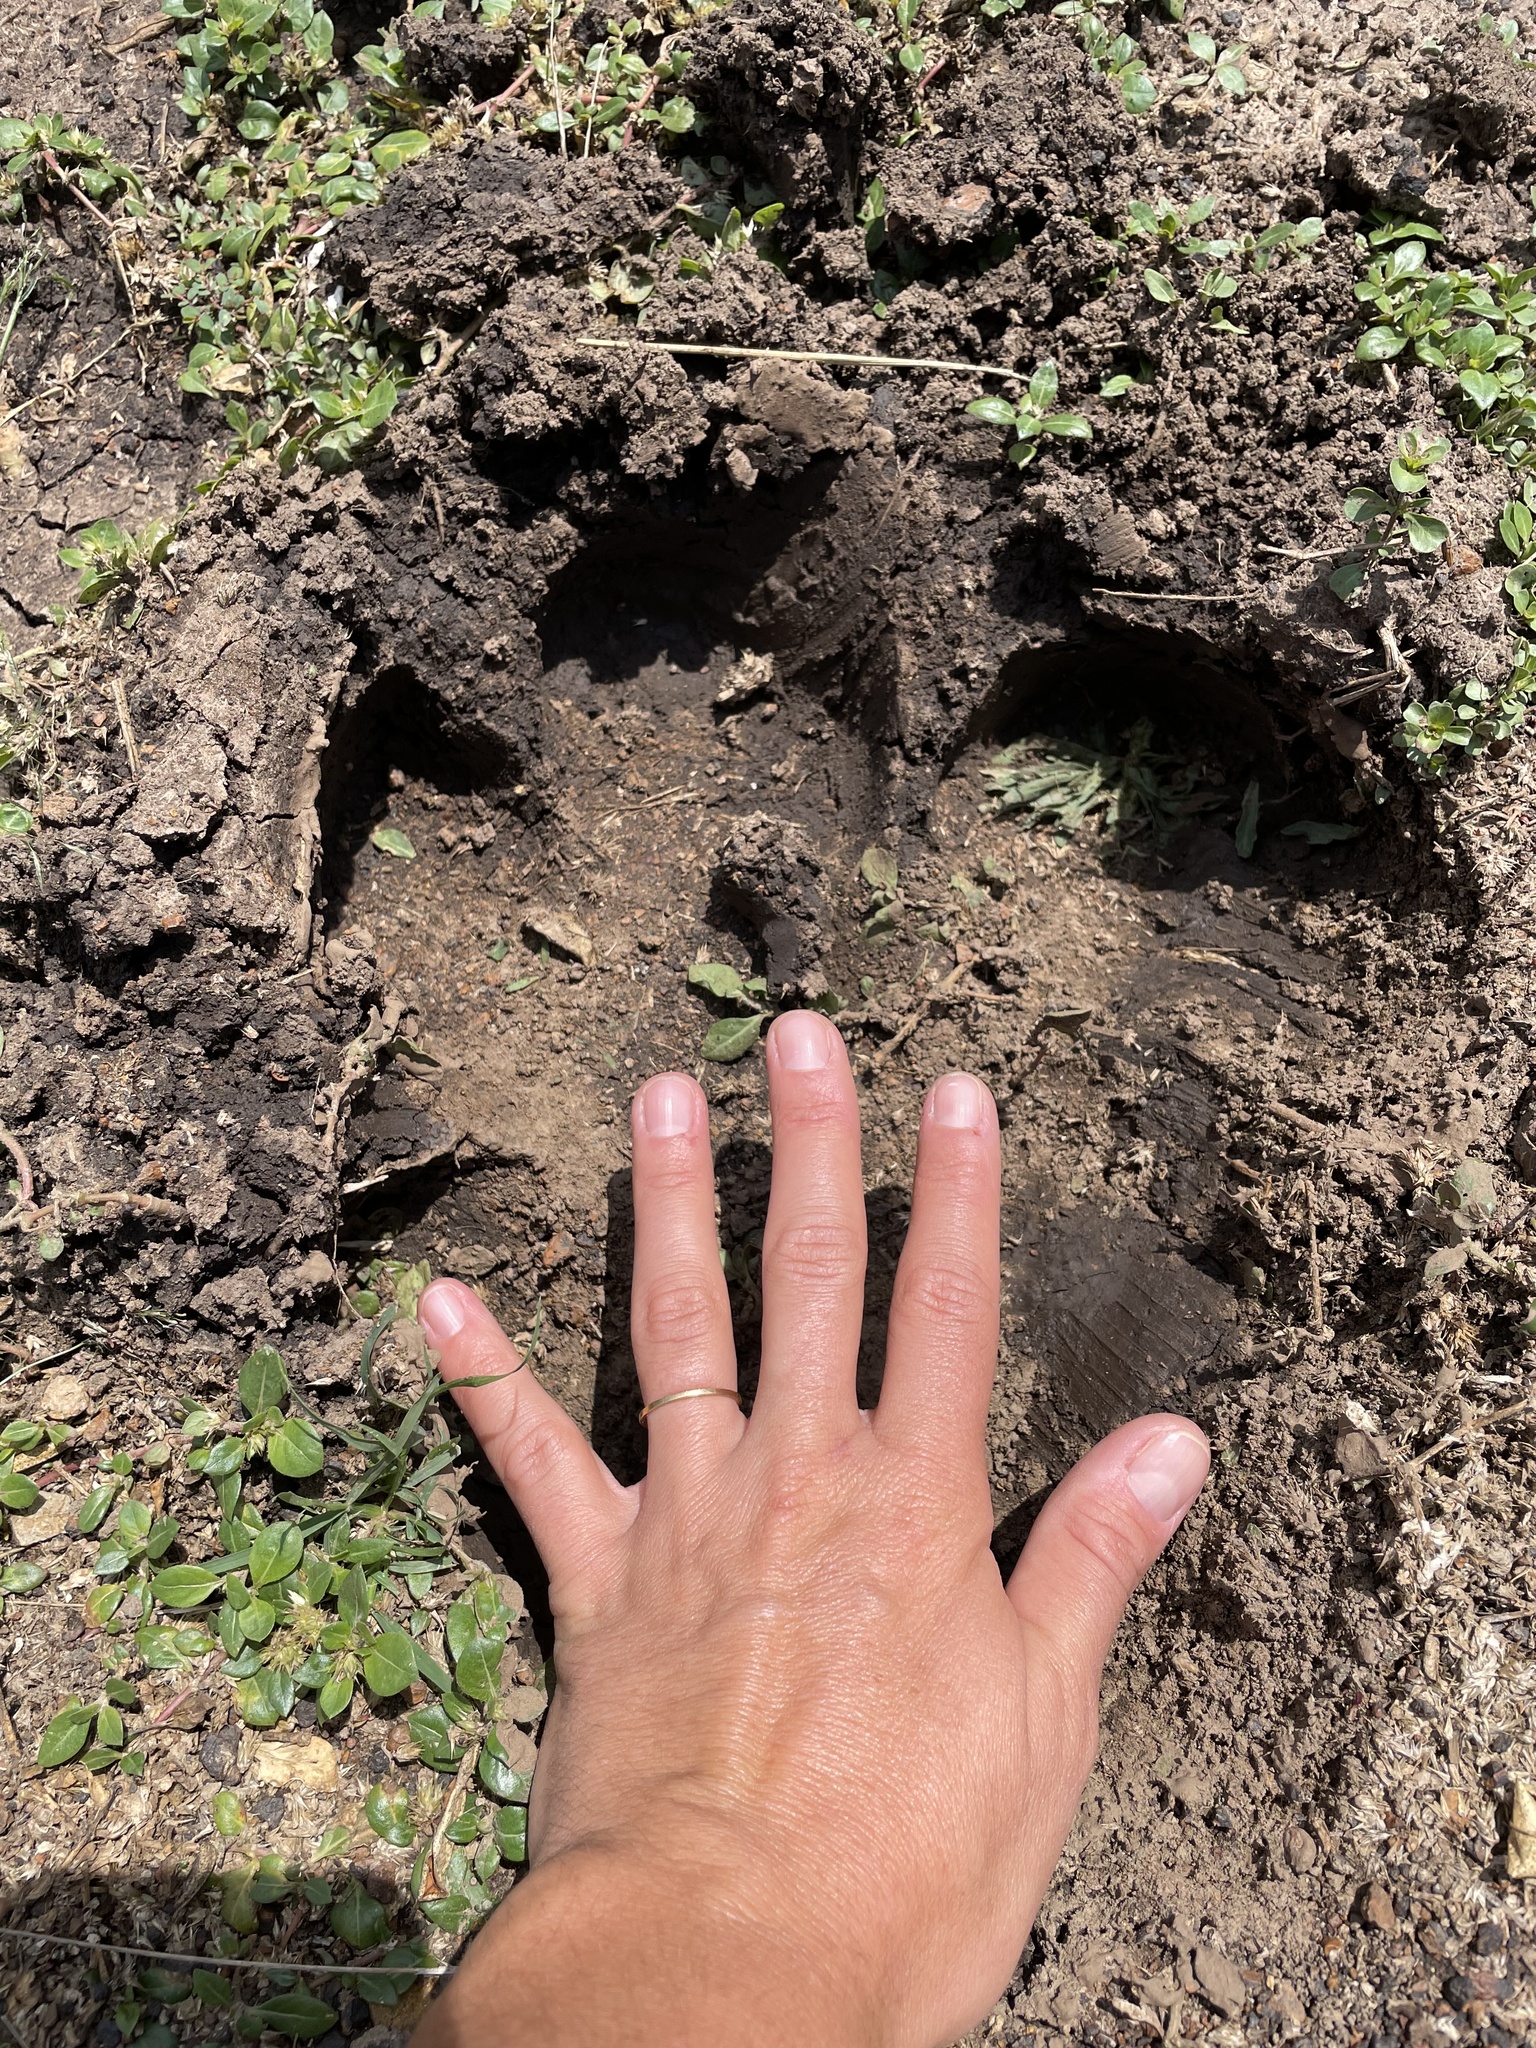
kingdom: Animalia
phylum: Chordata
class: Mammalia
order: Artiodactyla
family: Hippopotamidae
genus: Hippopotamus
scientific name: Hippopotamus amphibius
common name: Common hippopotamus
